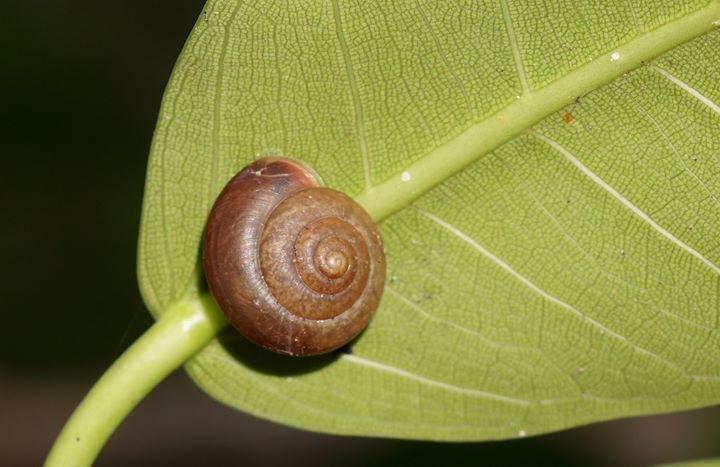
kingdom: Animalia
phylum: Mollusca
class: Gastropoda
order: Stylommatophora
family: Camaenidae
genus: Bradybaena
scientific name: Bradybaena similaris
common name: Asian trampsnail
